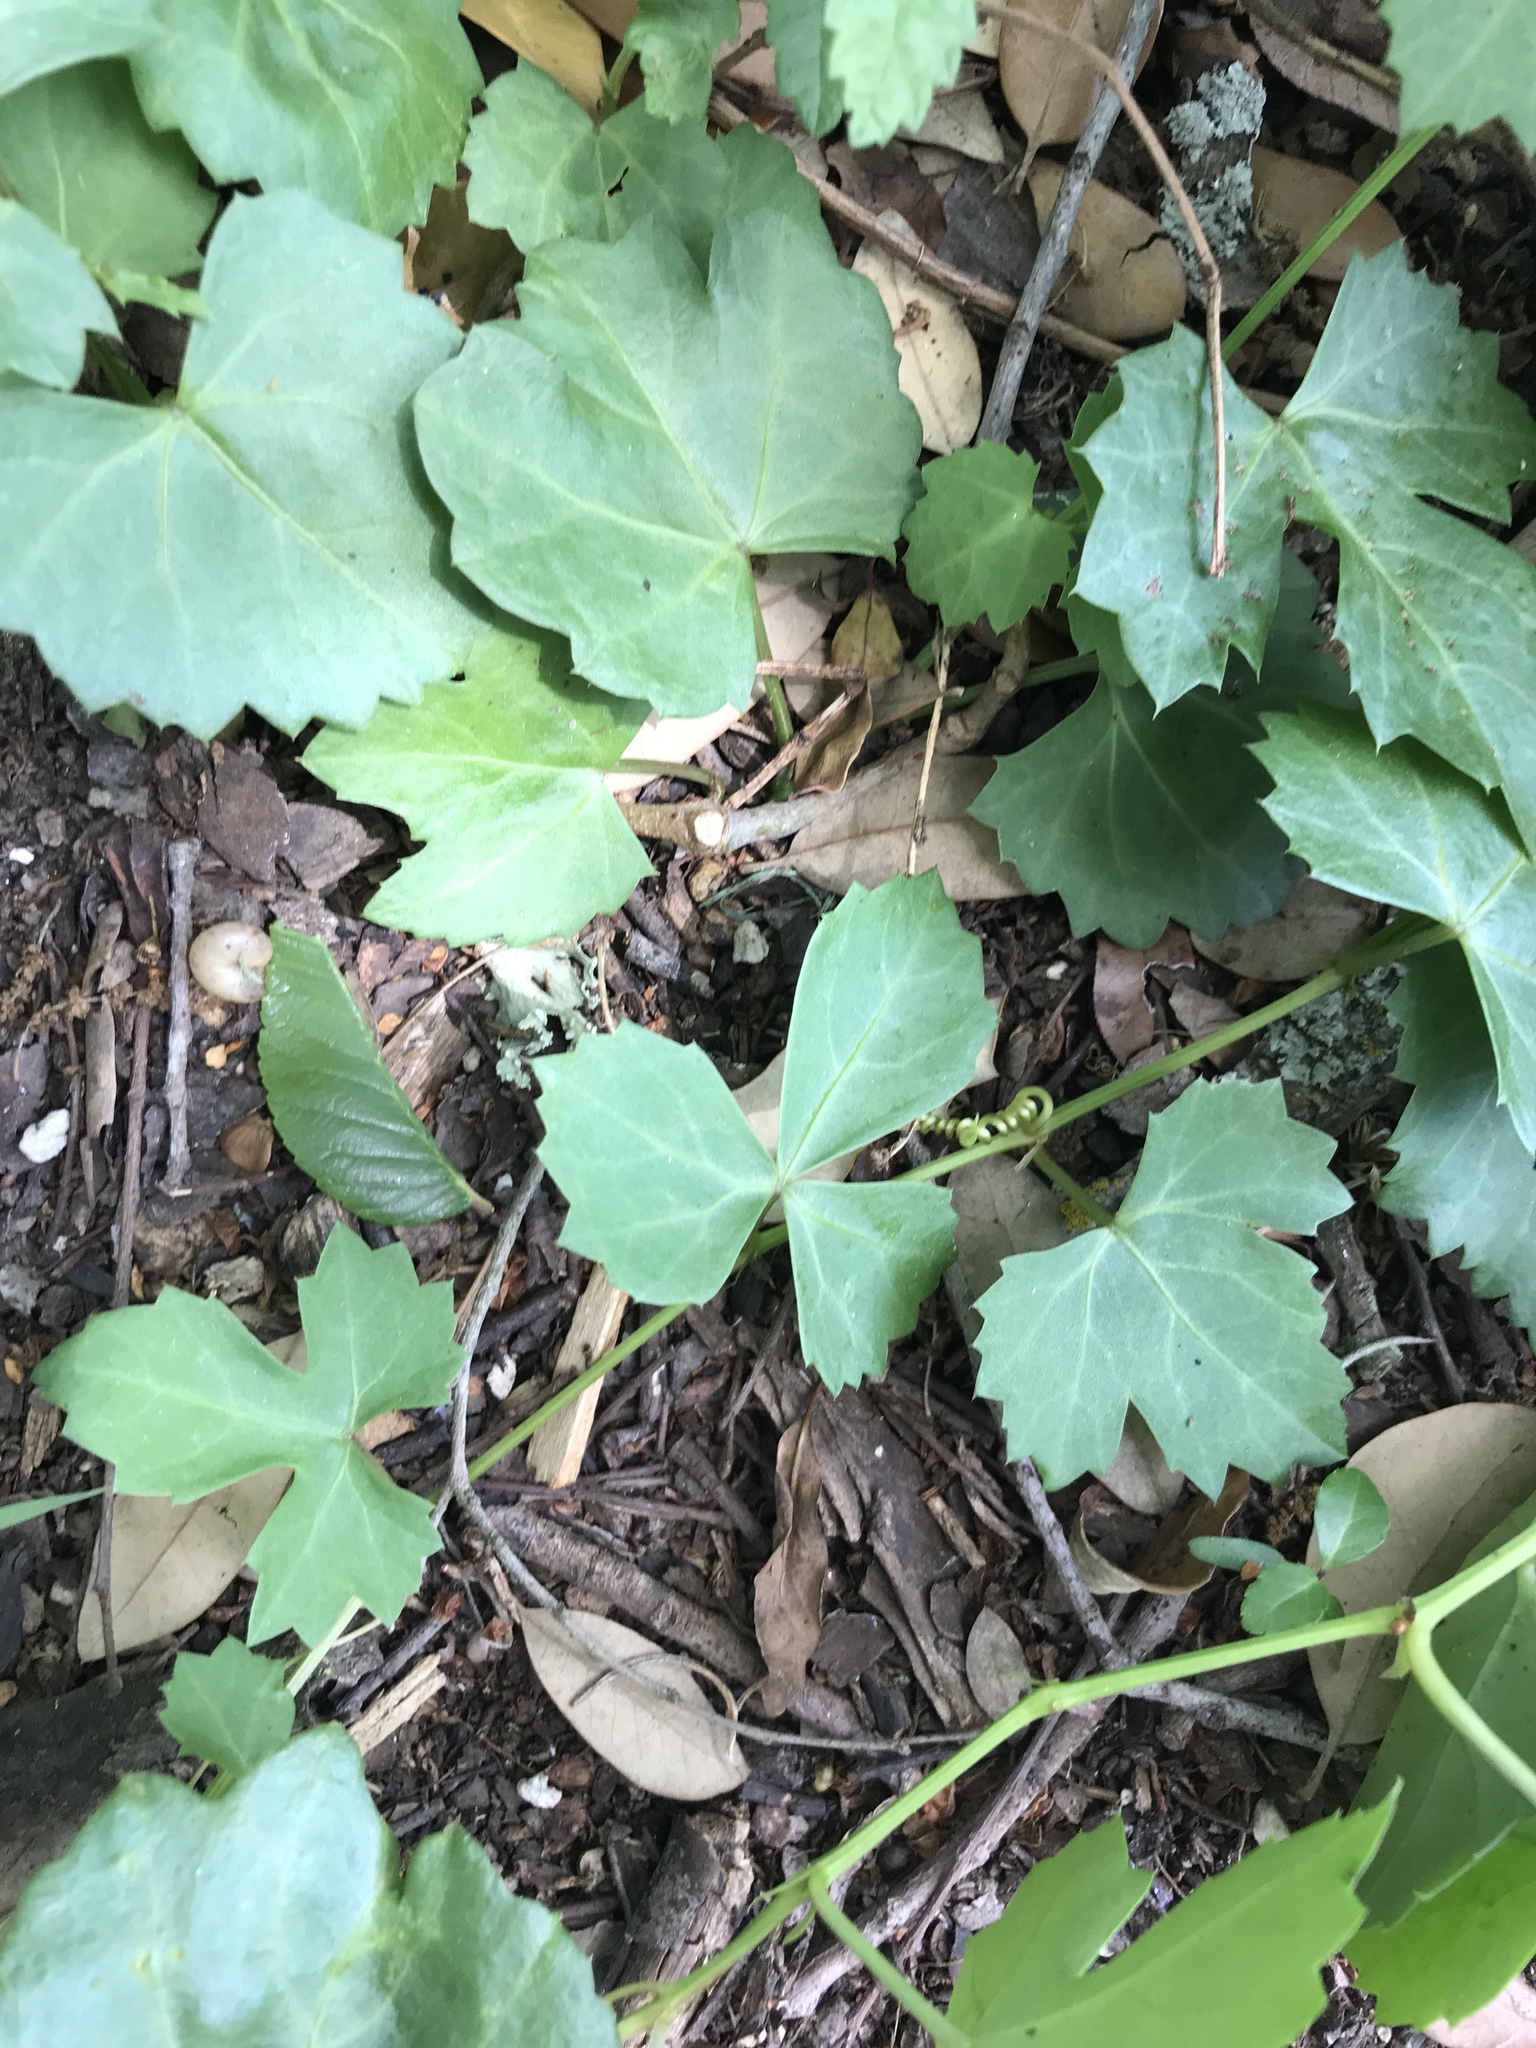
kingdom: Plantae
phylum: Tracheophyta
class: Magnoliopsida
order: Vitales
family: Vitaceae
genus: Cissus
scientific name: Cissus trifoliata
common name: Vine-sorrel
